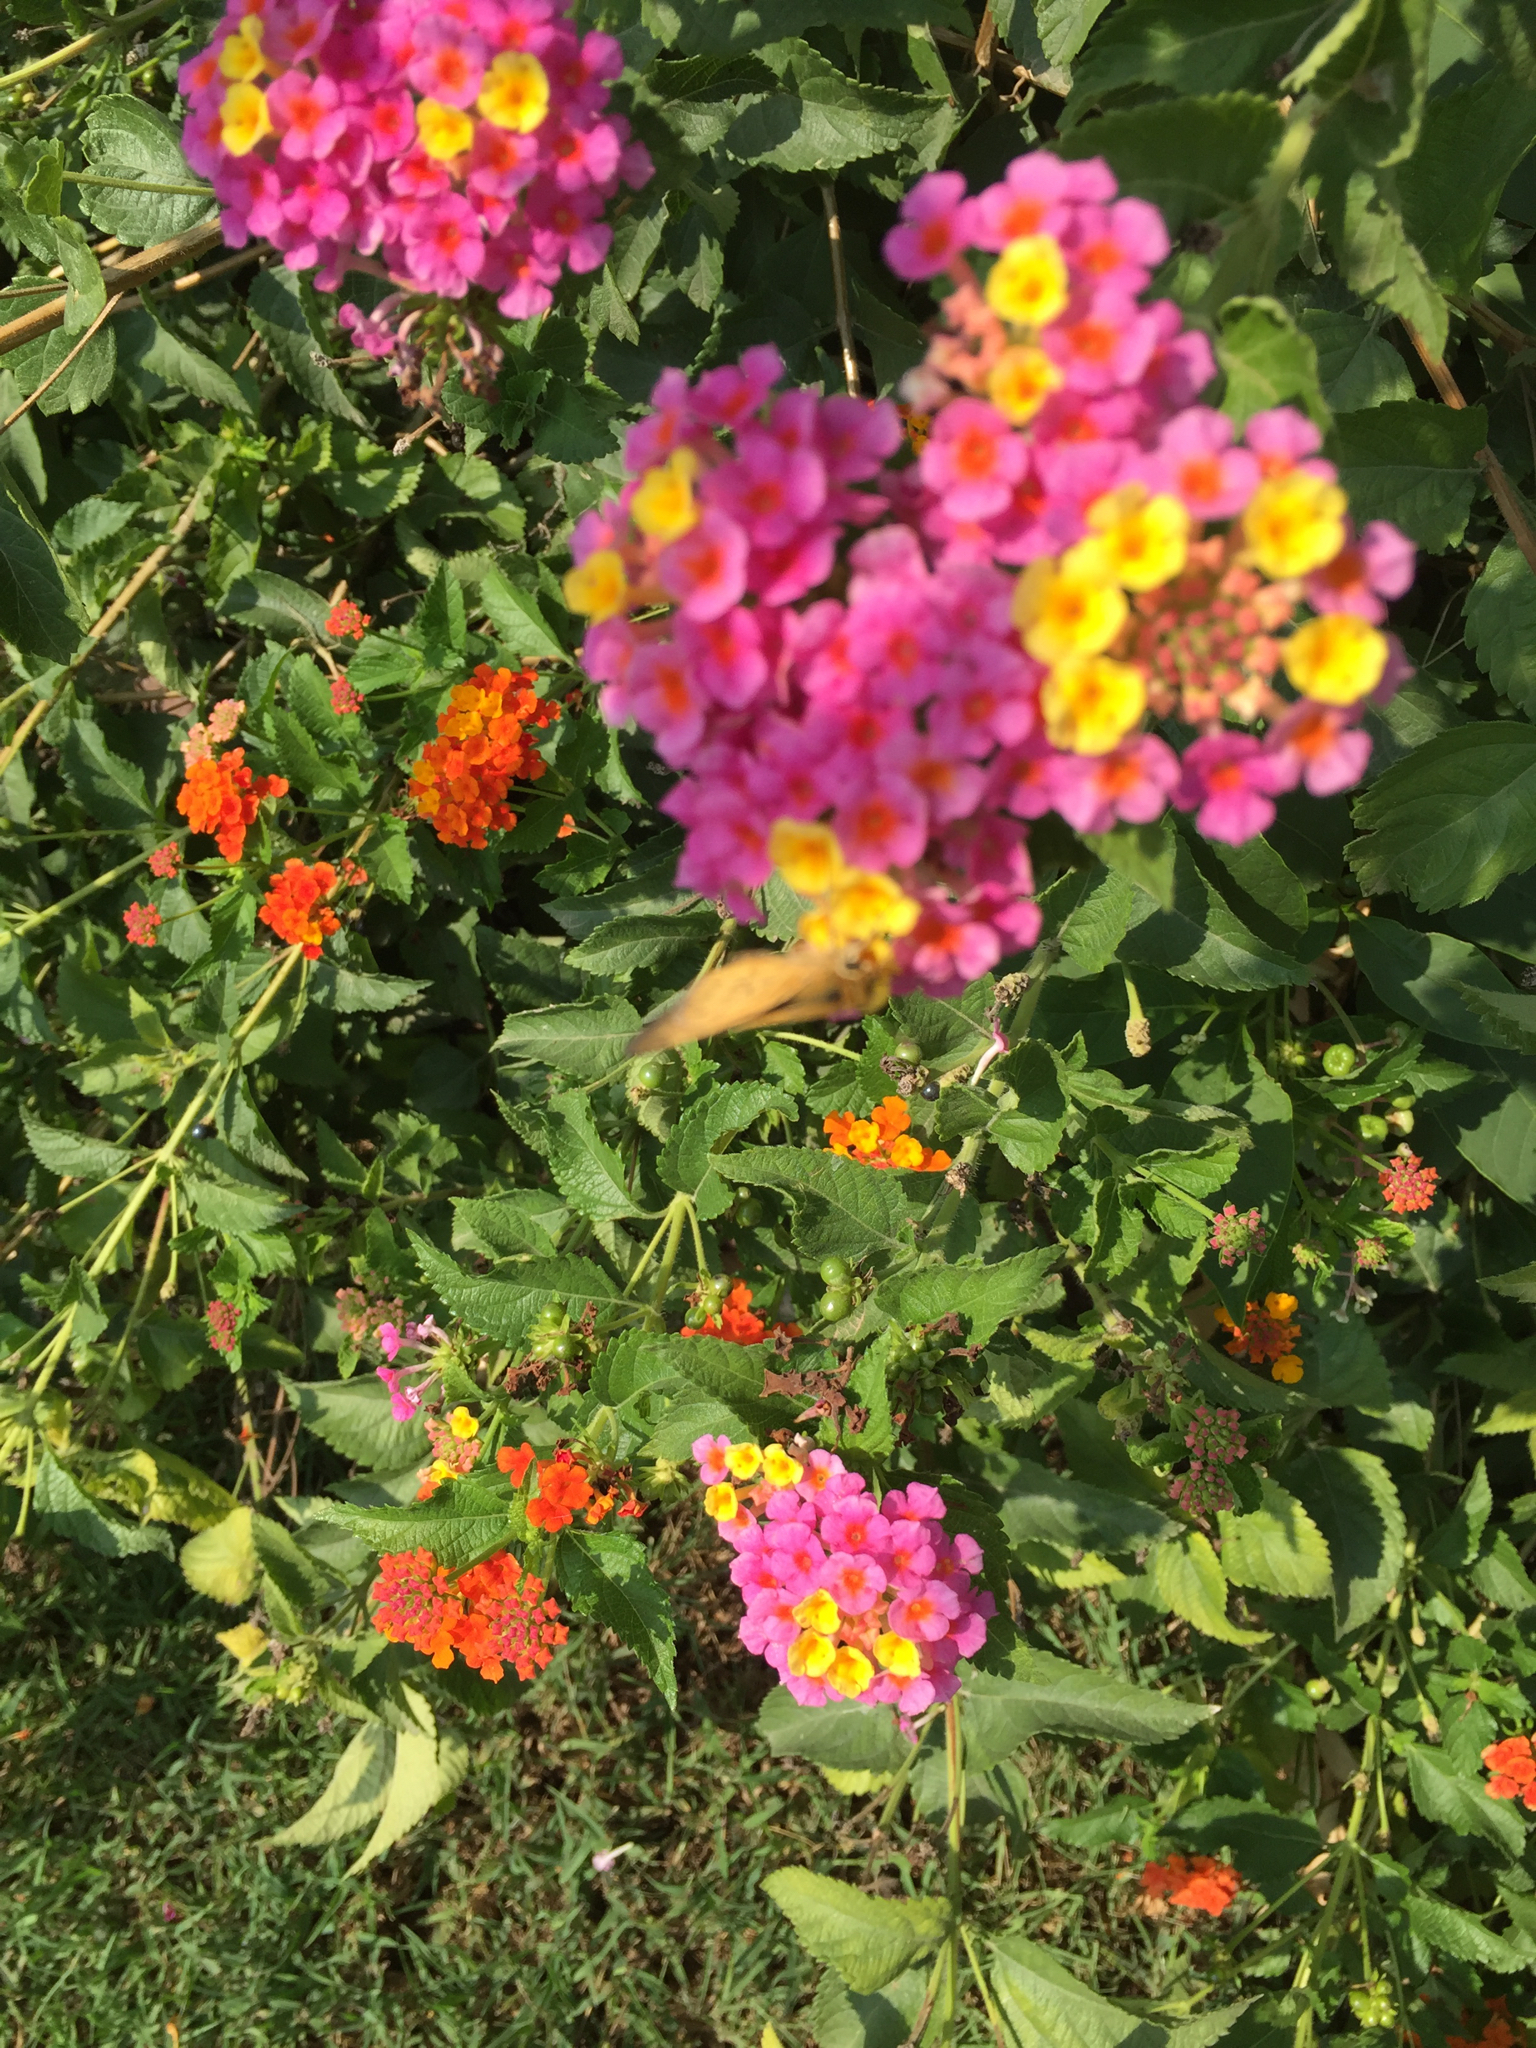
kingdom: Plantae
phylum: Tracheophyta
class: Magnoliopsida
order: Lamiales
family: Verbenaceae
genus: Lantana
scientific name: Lantana camara
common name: Lantana
